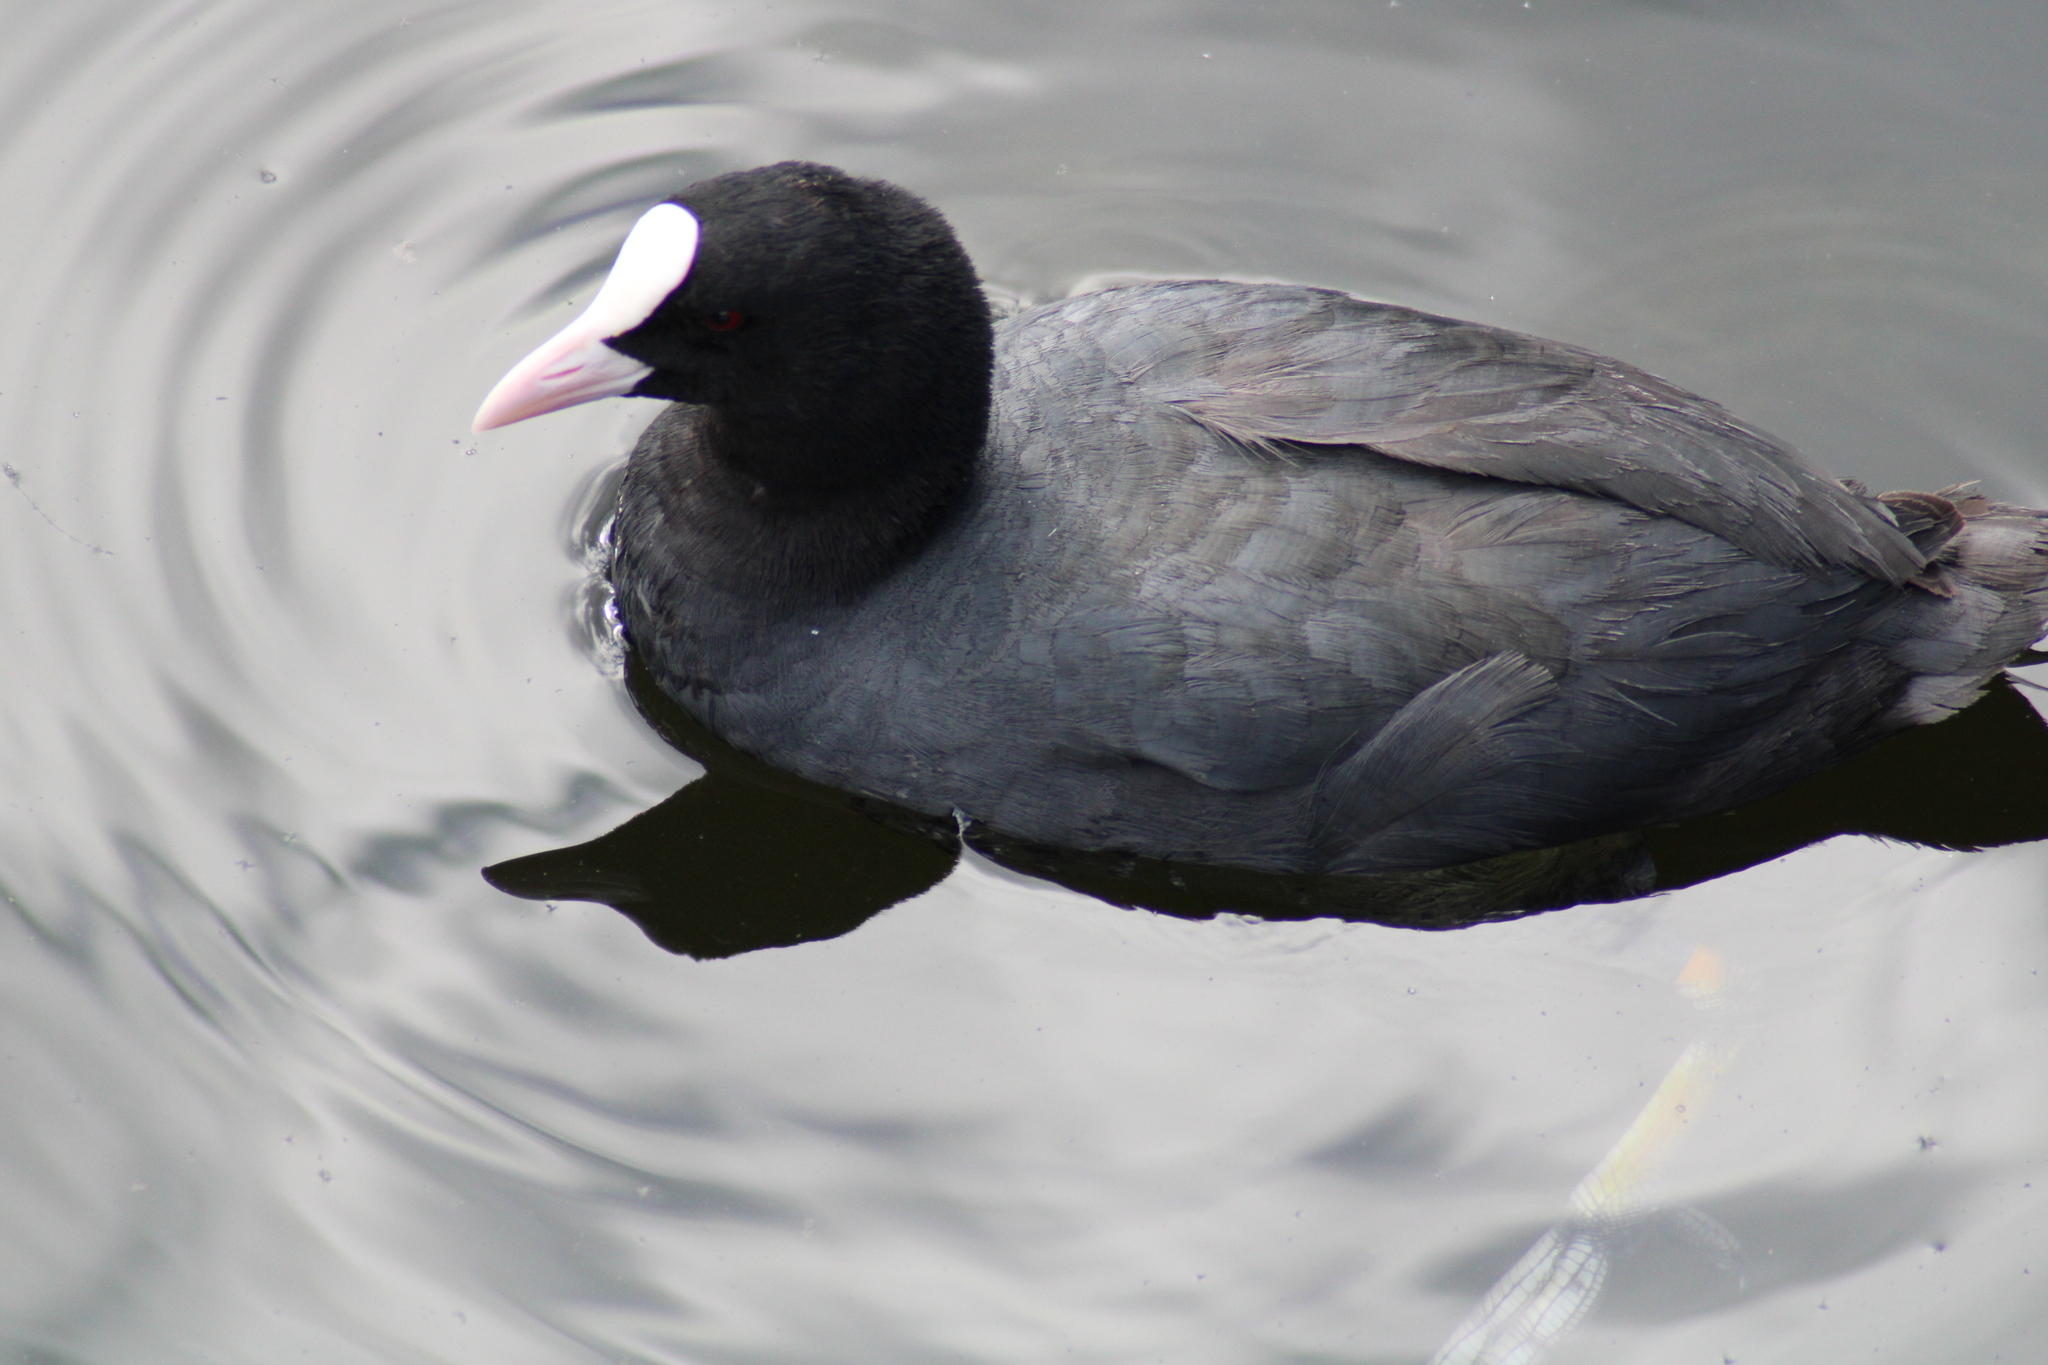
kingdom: Animalia
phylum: Chordata
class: Aves
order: Gruiformes
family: Rallidae
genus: Fulica
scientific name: Fulica atra
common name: Eurasian coot
